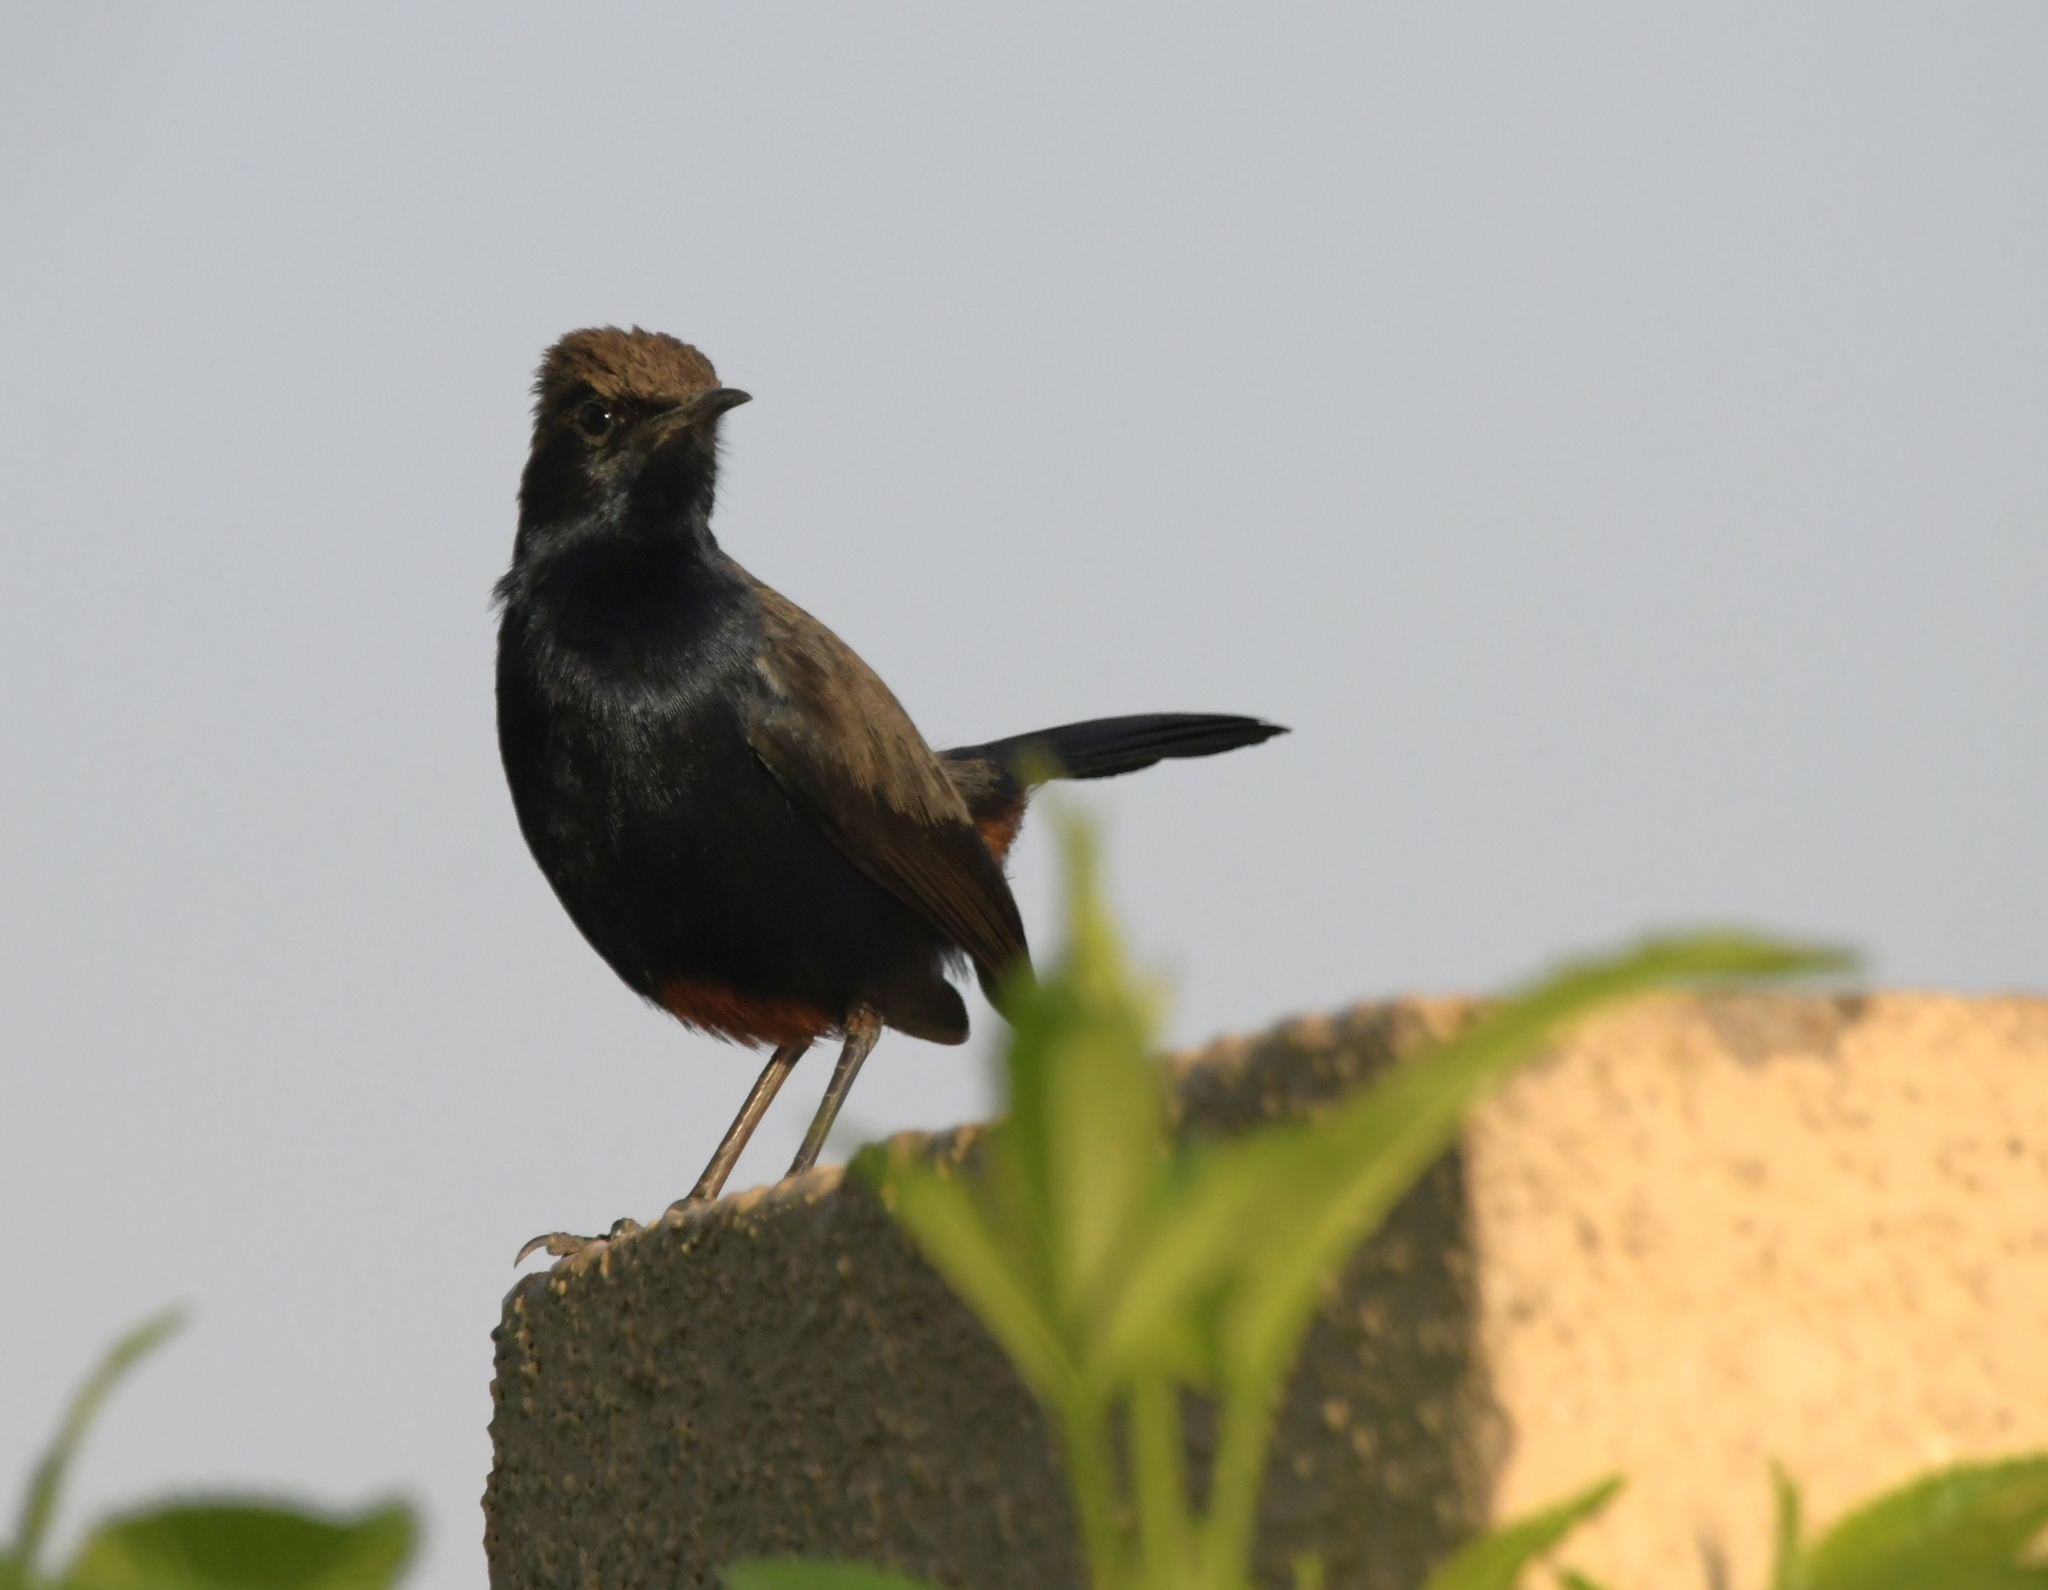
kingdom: Animalia
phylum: Chordata
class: Aves
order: Passeriformes
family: Muscicapidae
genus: Saxicoloides
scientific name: Saxicoloides fulicatus
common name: Indian robin
